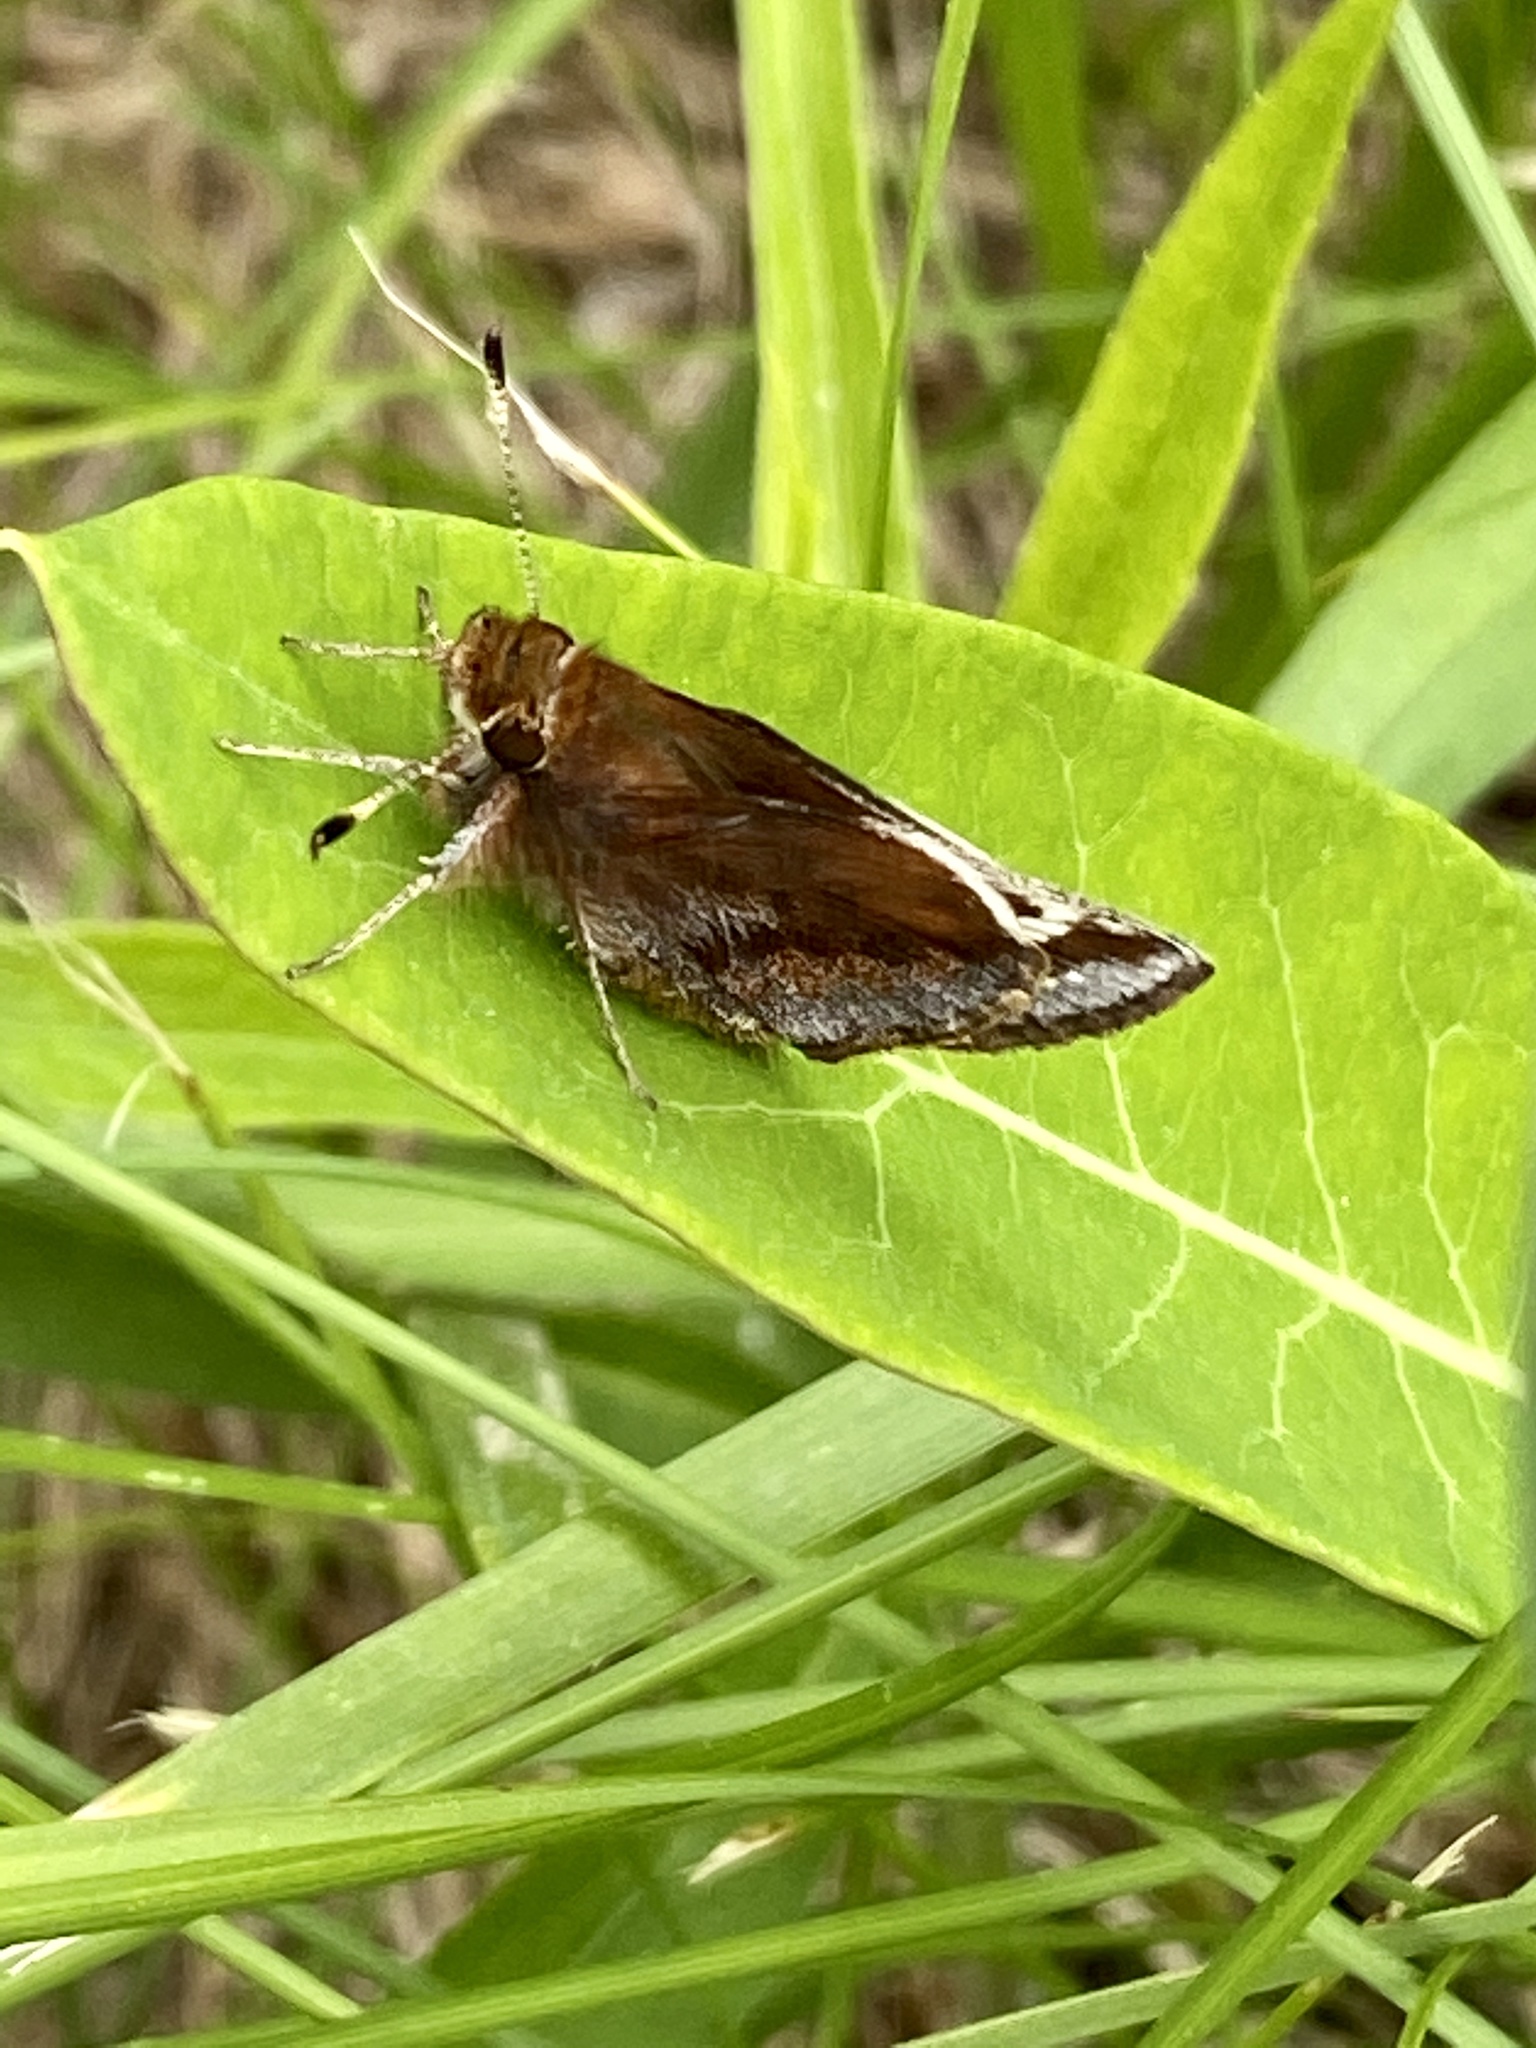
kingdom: Animalia
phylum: Arthropoda
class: Insecta
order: Lepidoptera
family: Hesperiidae
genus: Lon
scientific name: Lon zabulon
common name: Zabulon skipper
